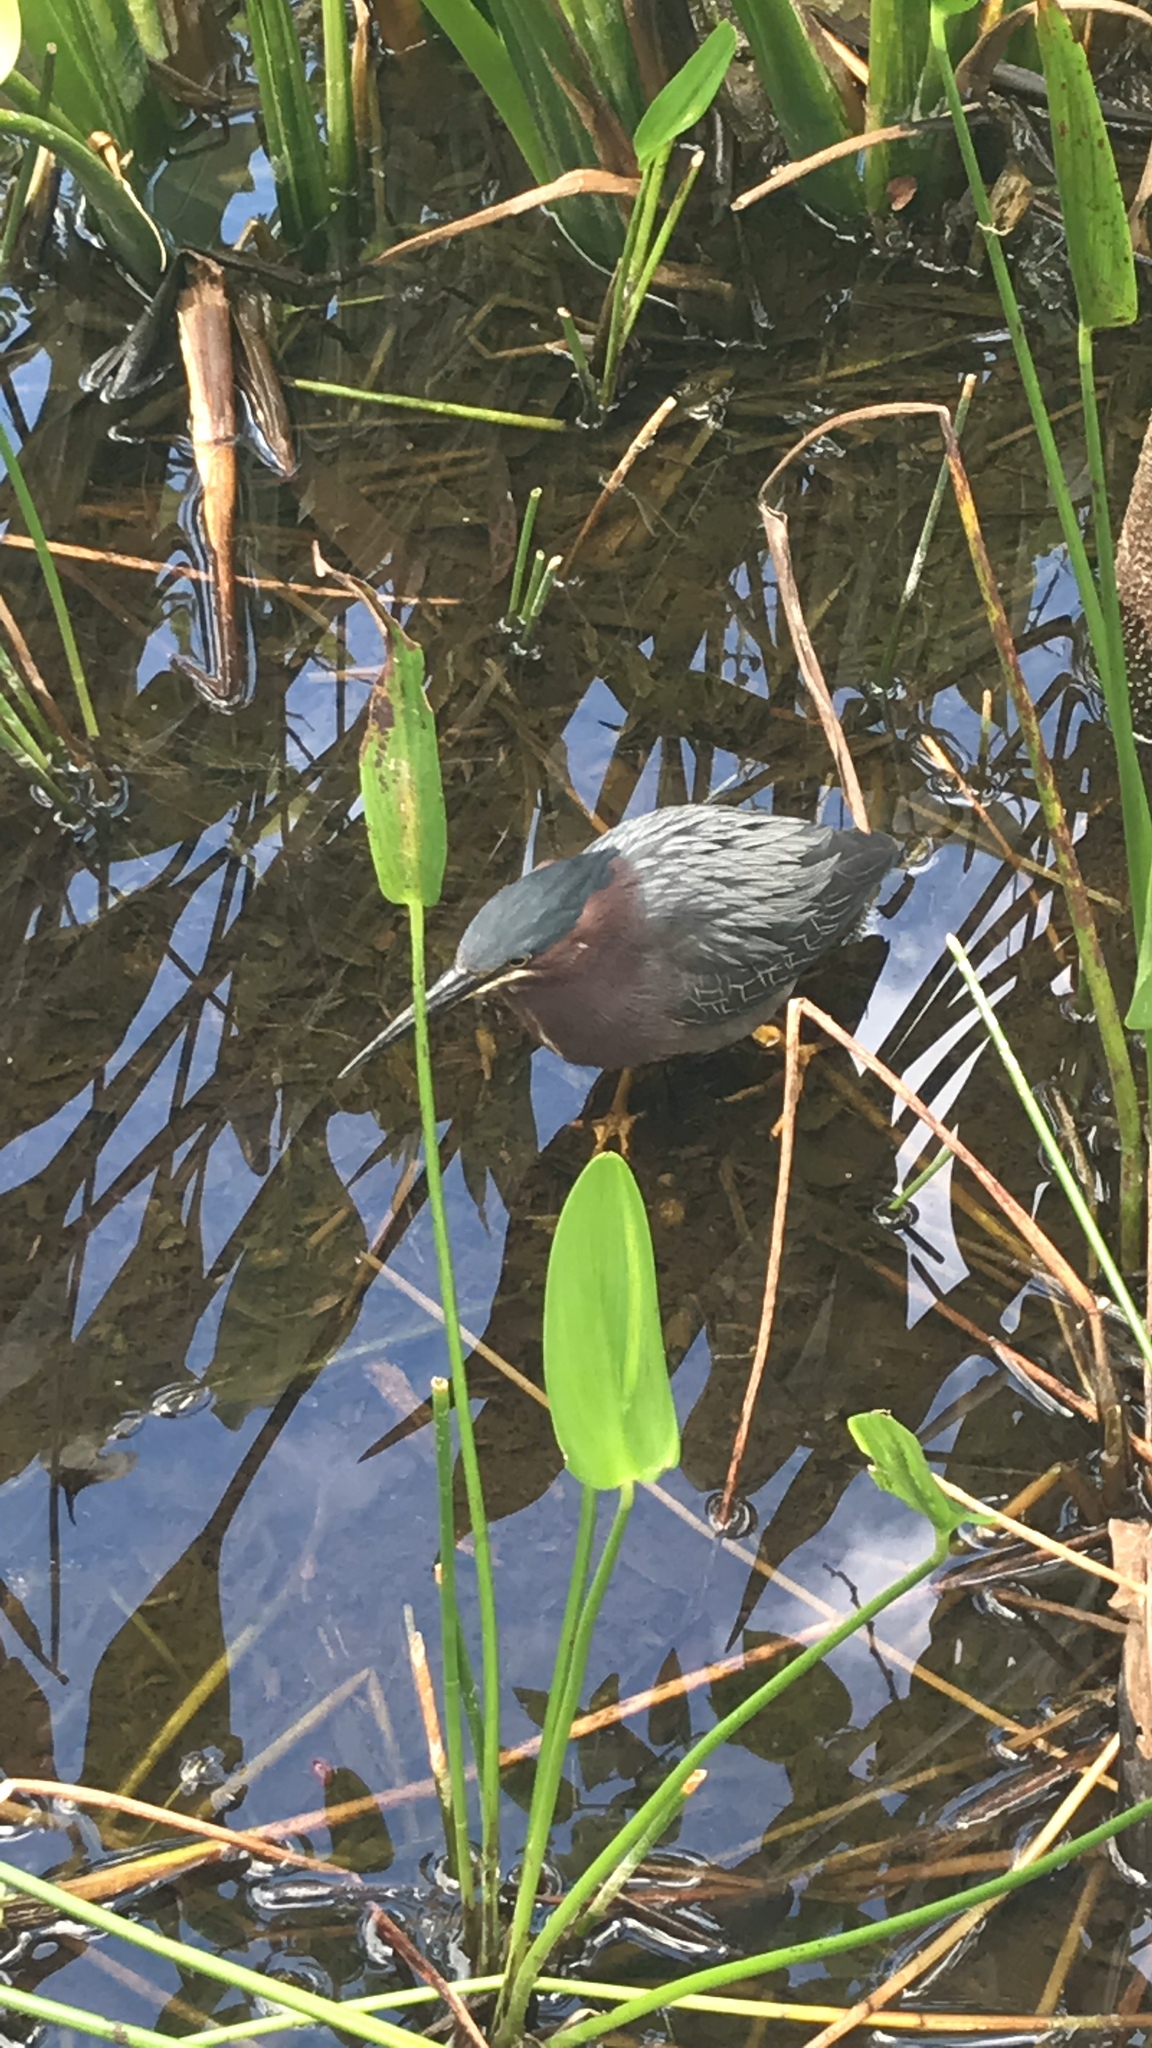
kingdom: Animalia
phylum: Chordata
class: Aves
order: Pelecaniformes
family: Ardeidae
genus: Butorides
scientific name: Butorides virescens
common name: Green heron
